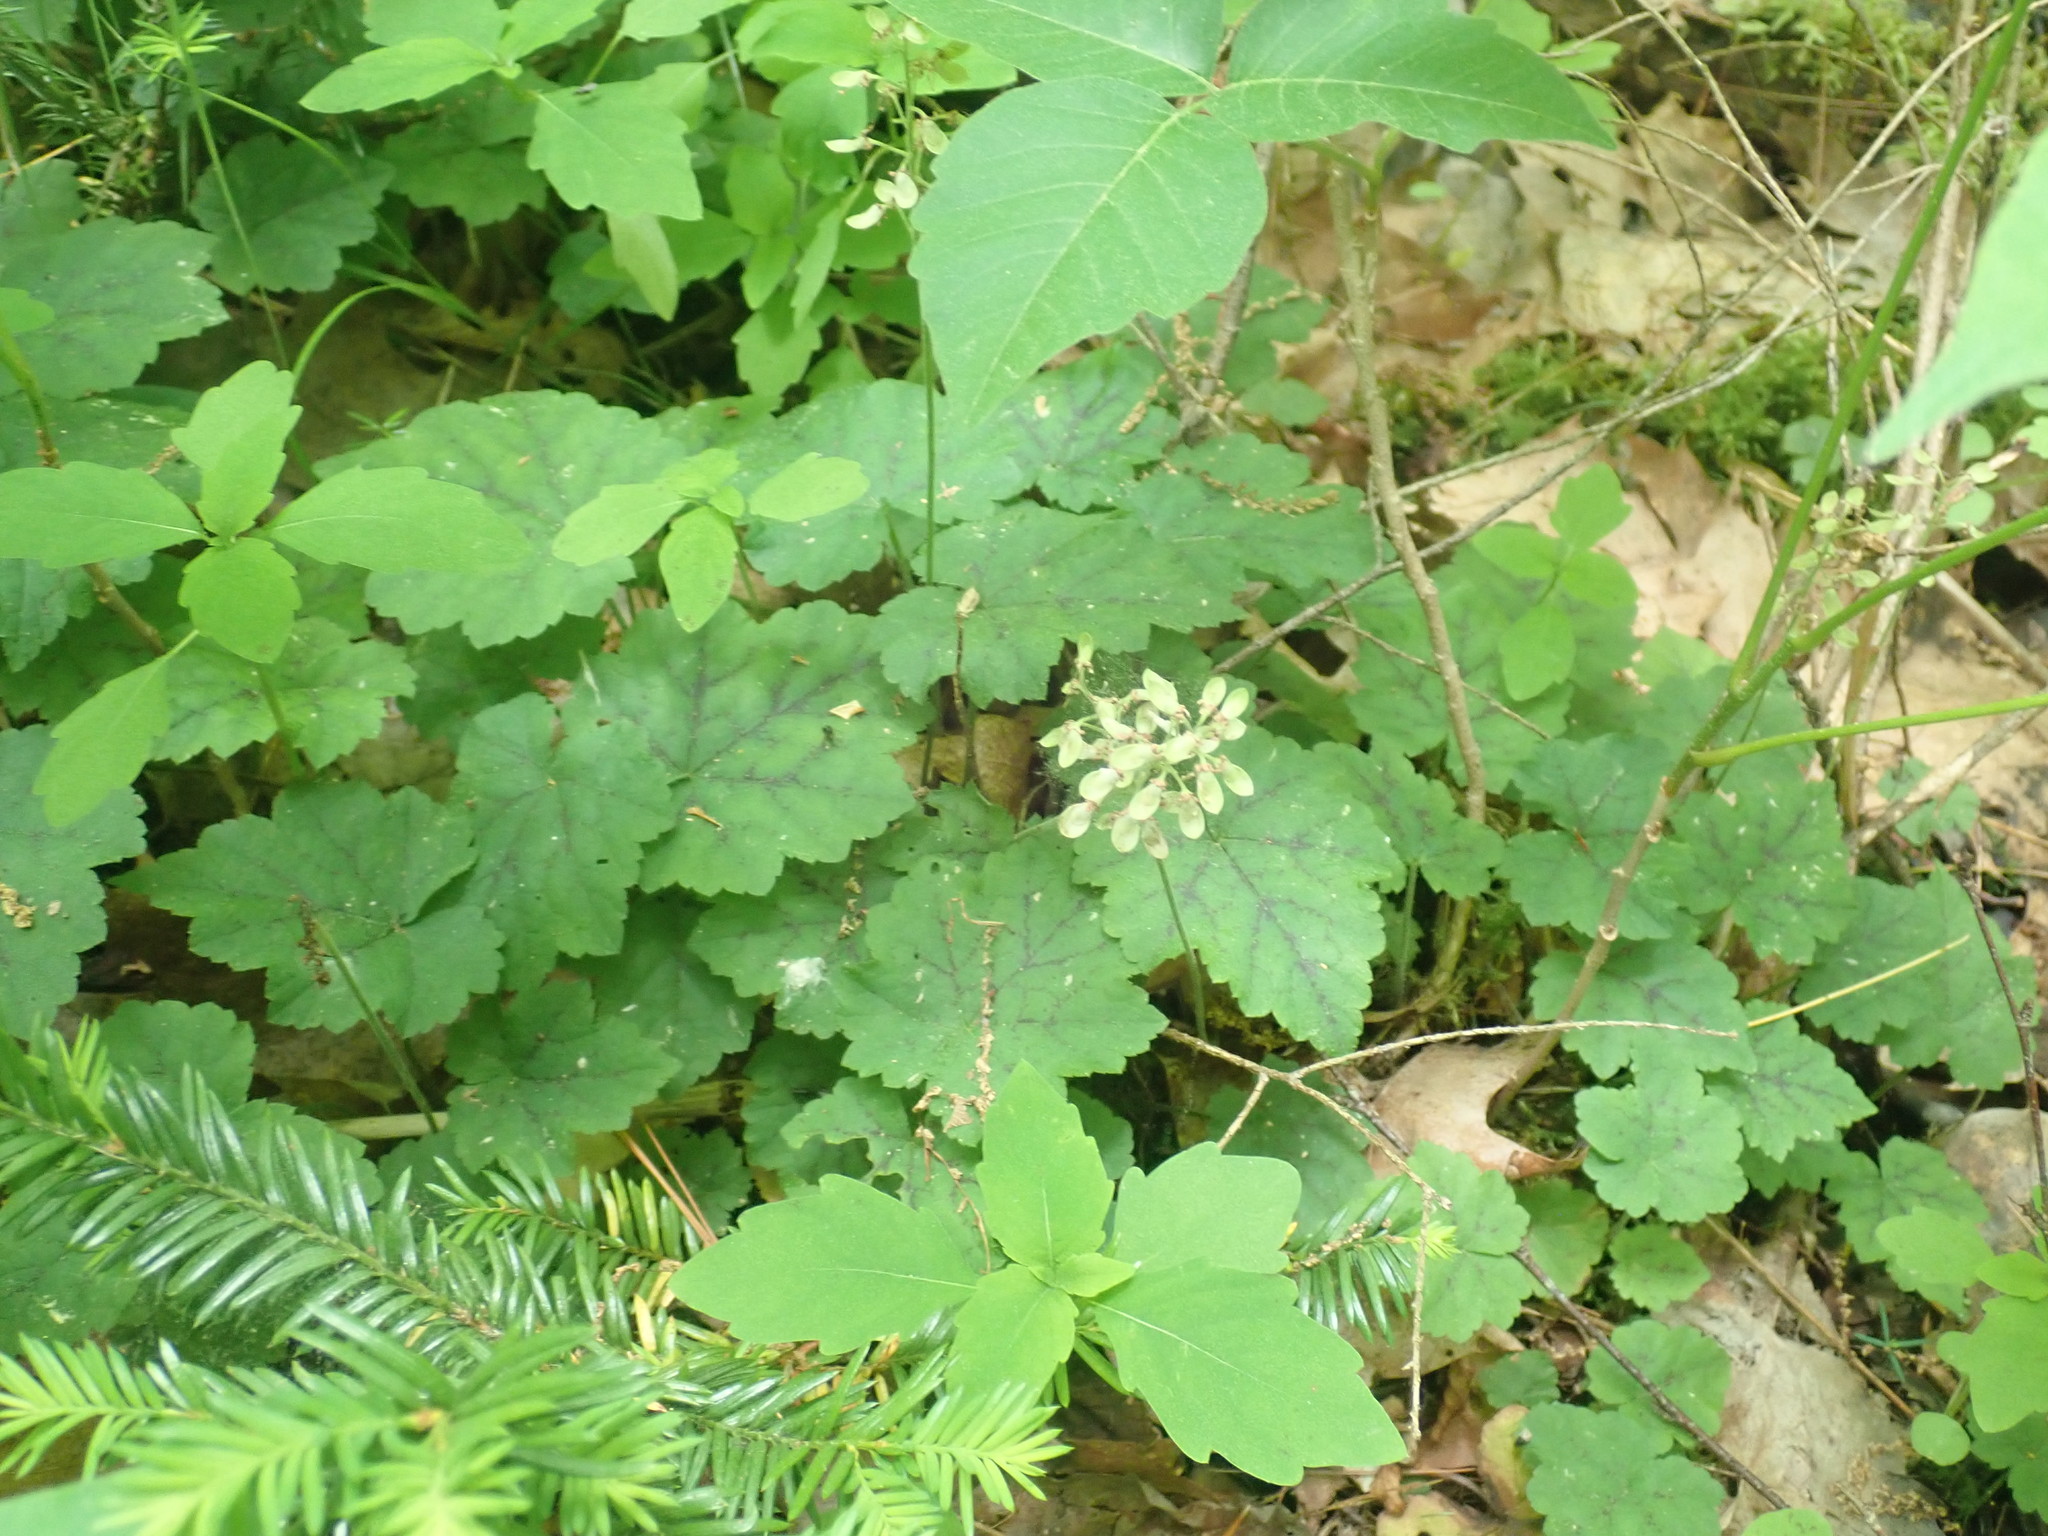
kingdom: Plantae
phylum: Tracheophyta
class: Magnoliopsida
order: Saxifragales
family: Saxifragaceae
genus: Tiarella
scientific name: Tiarella stolonifera
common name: Stoloniferous foamflower
